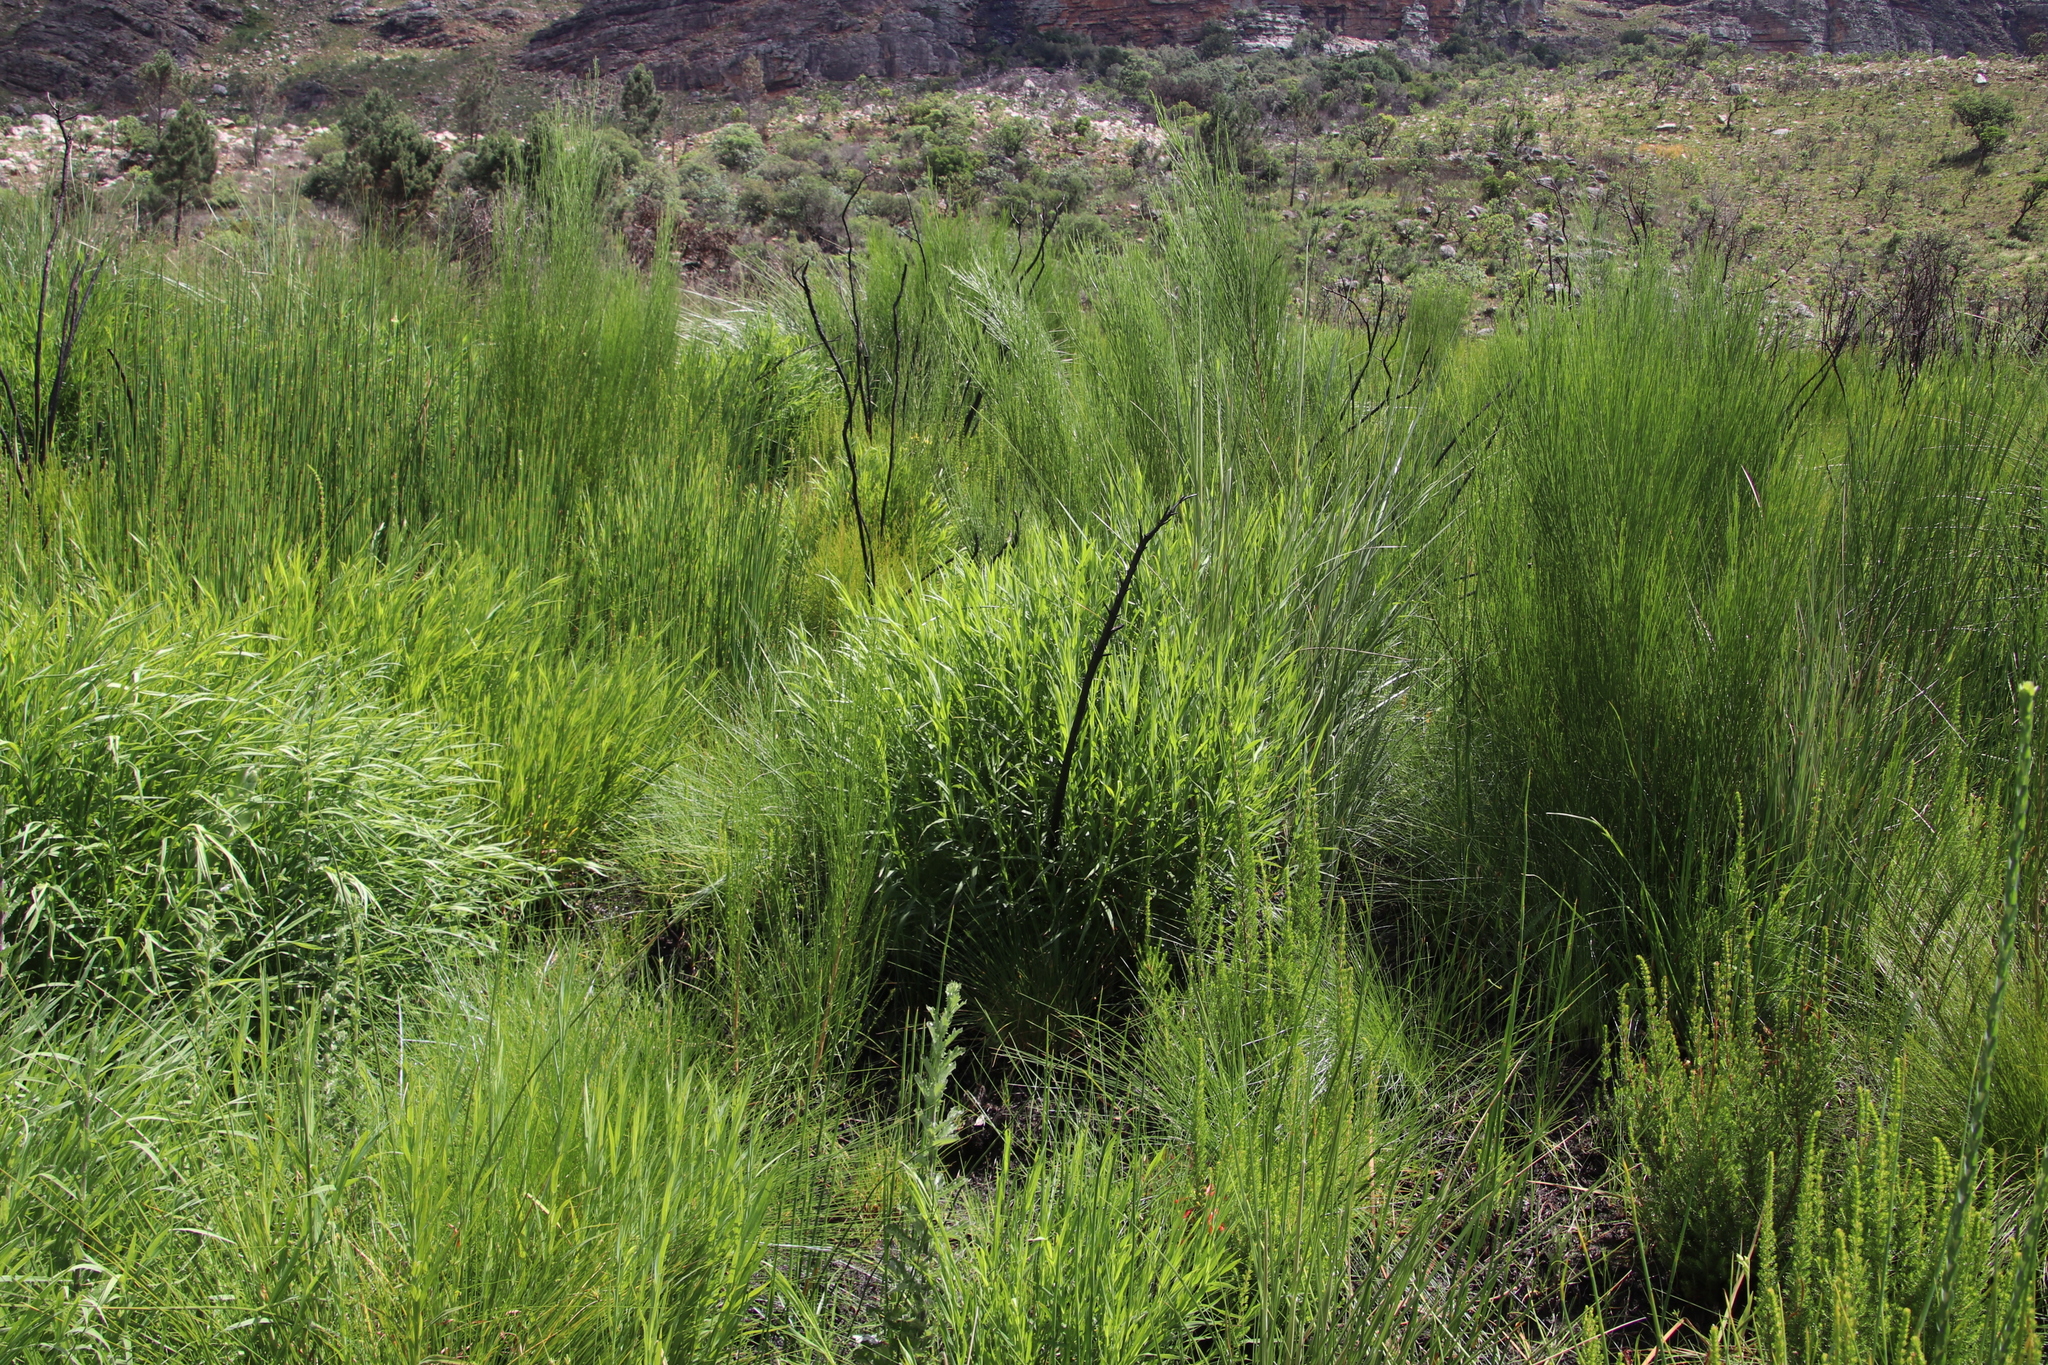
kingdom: Plantae
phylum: Tracheophyta
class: Magnoliopsida
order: Rosales
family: Rosaceae
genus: Cliffortia
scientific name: Cliffortia graminea
